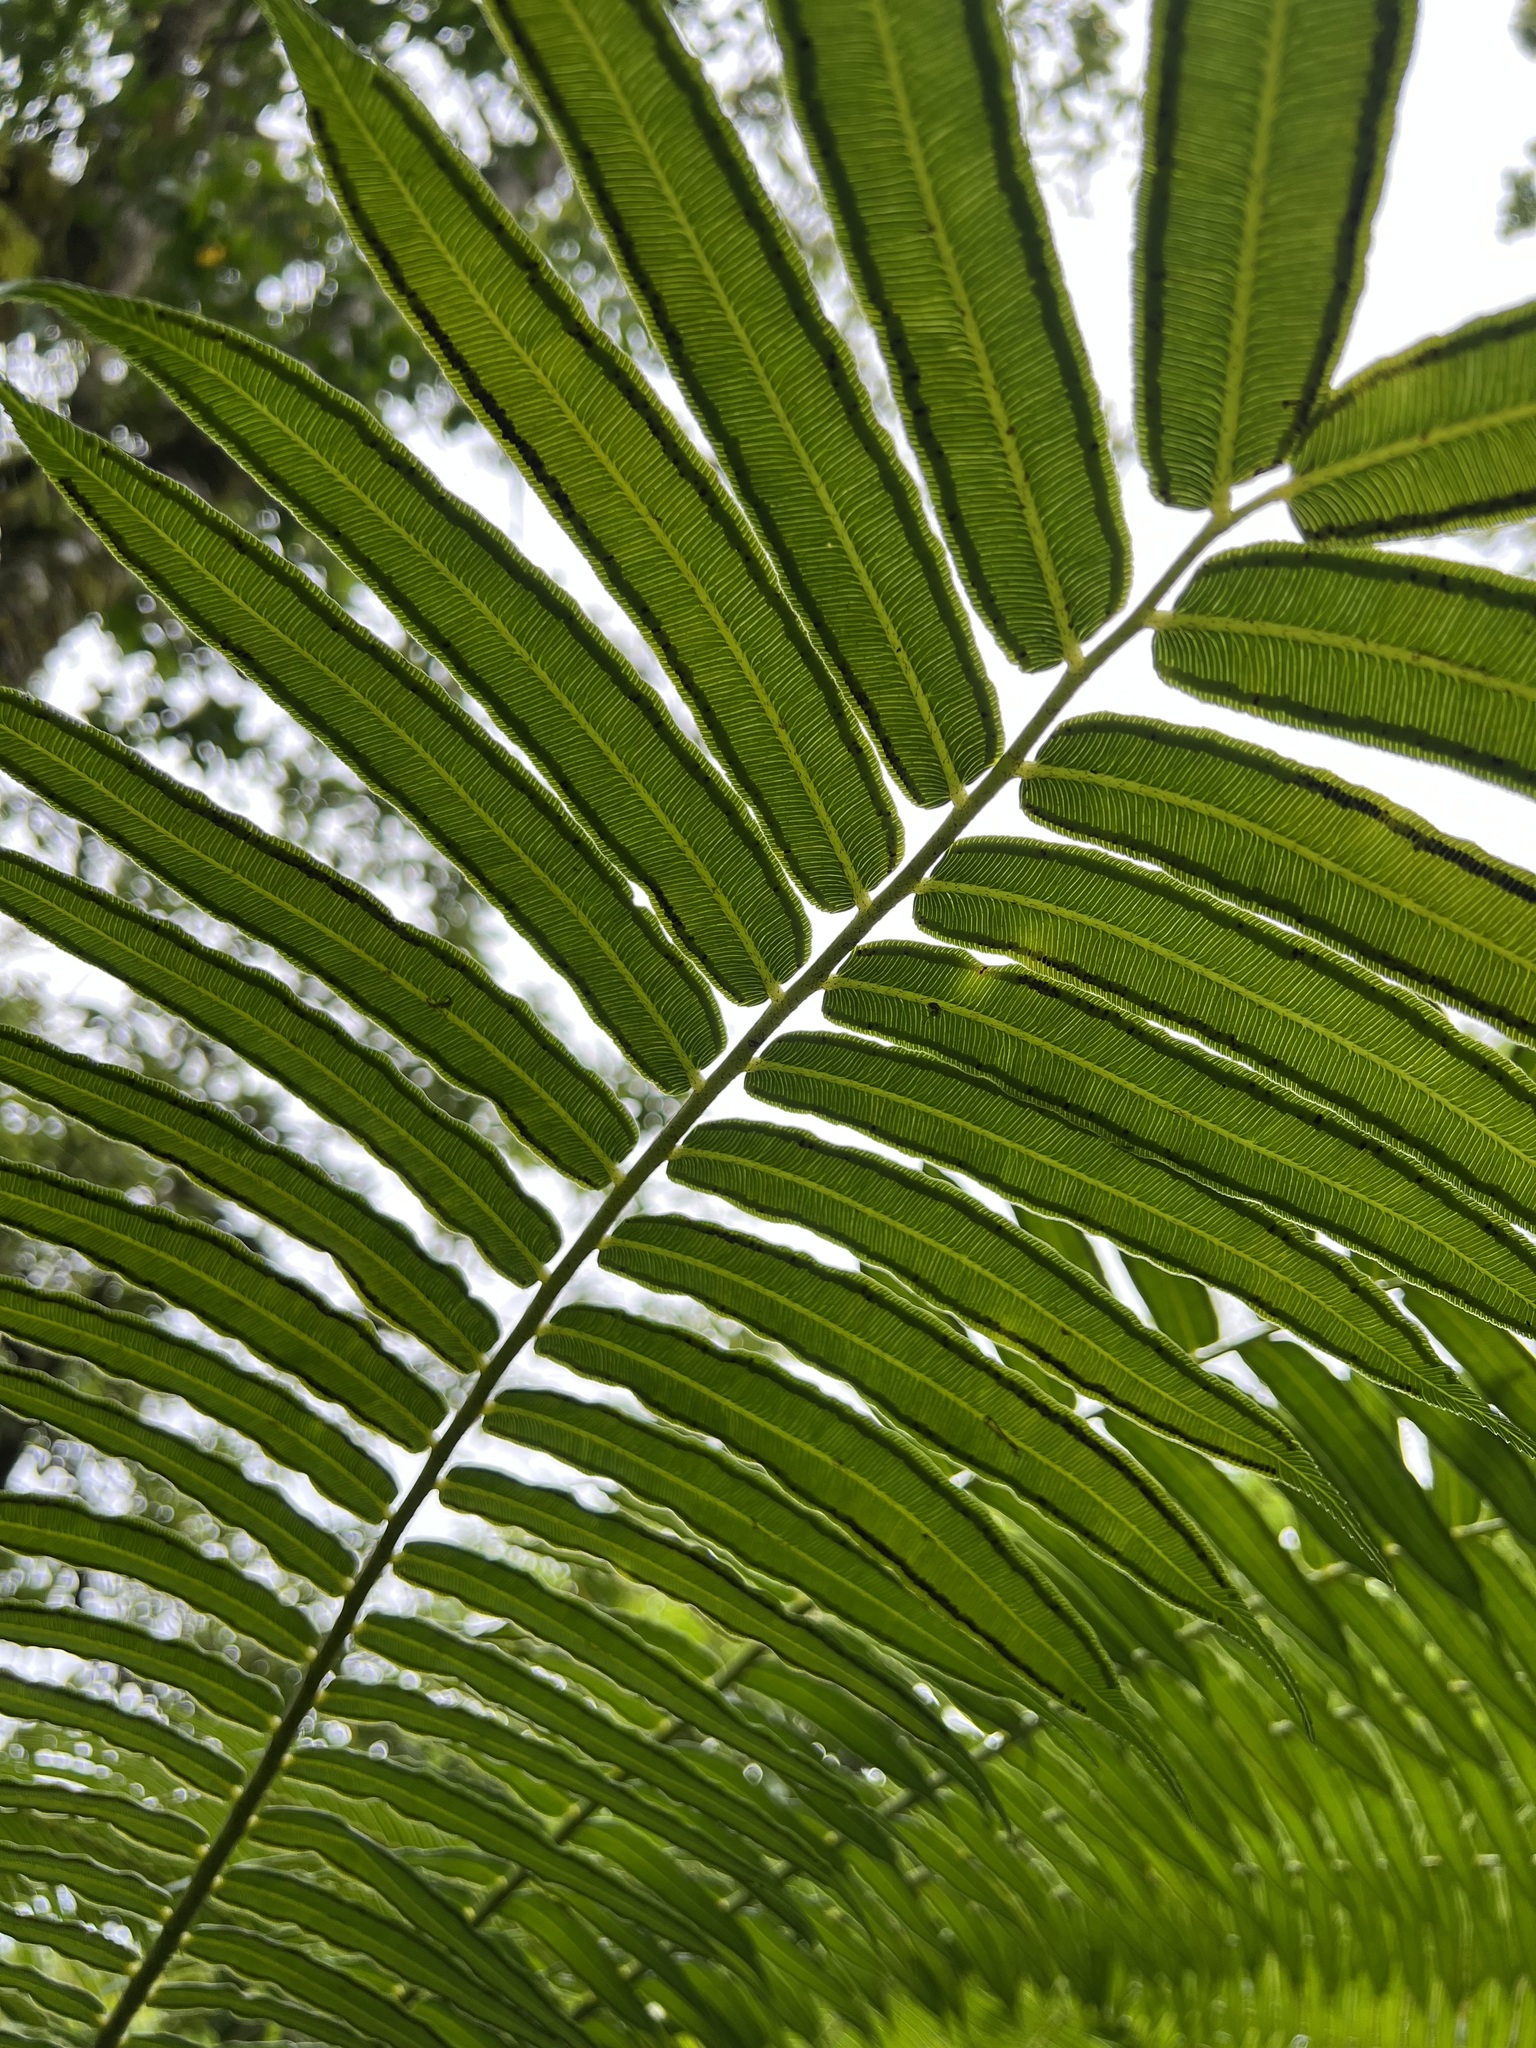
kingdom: Plantae
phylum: Tracheophyta
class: Polypodiopsida
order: Marattiales
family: Marattiaceae
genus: Angiopteris
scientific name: Angiopteris evecta
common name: Mule's-foot fern
